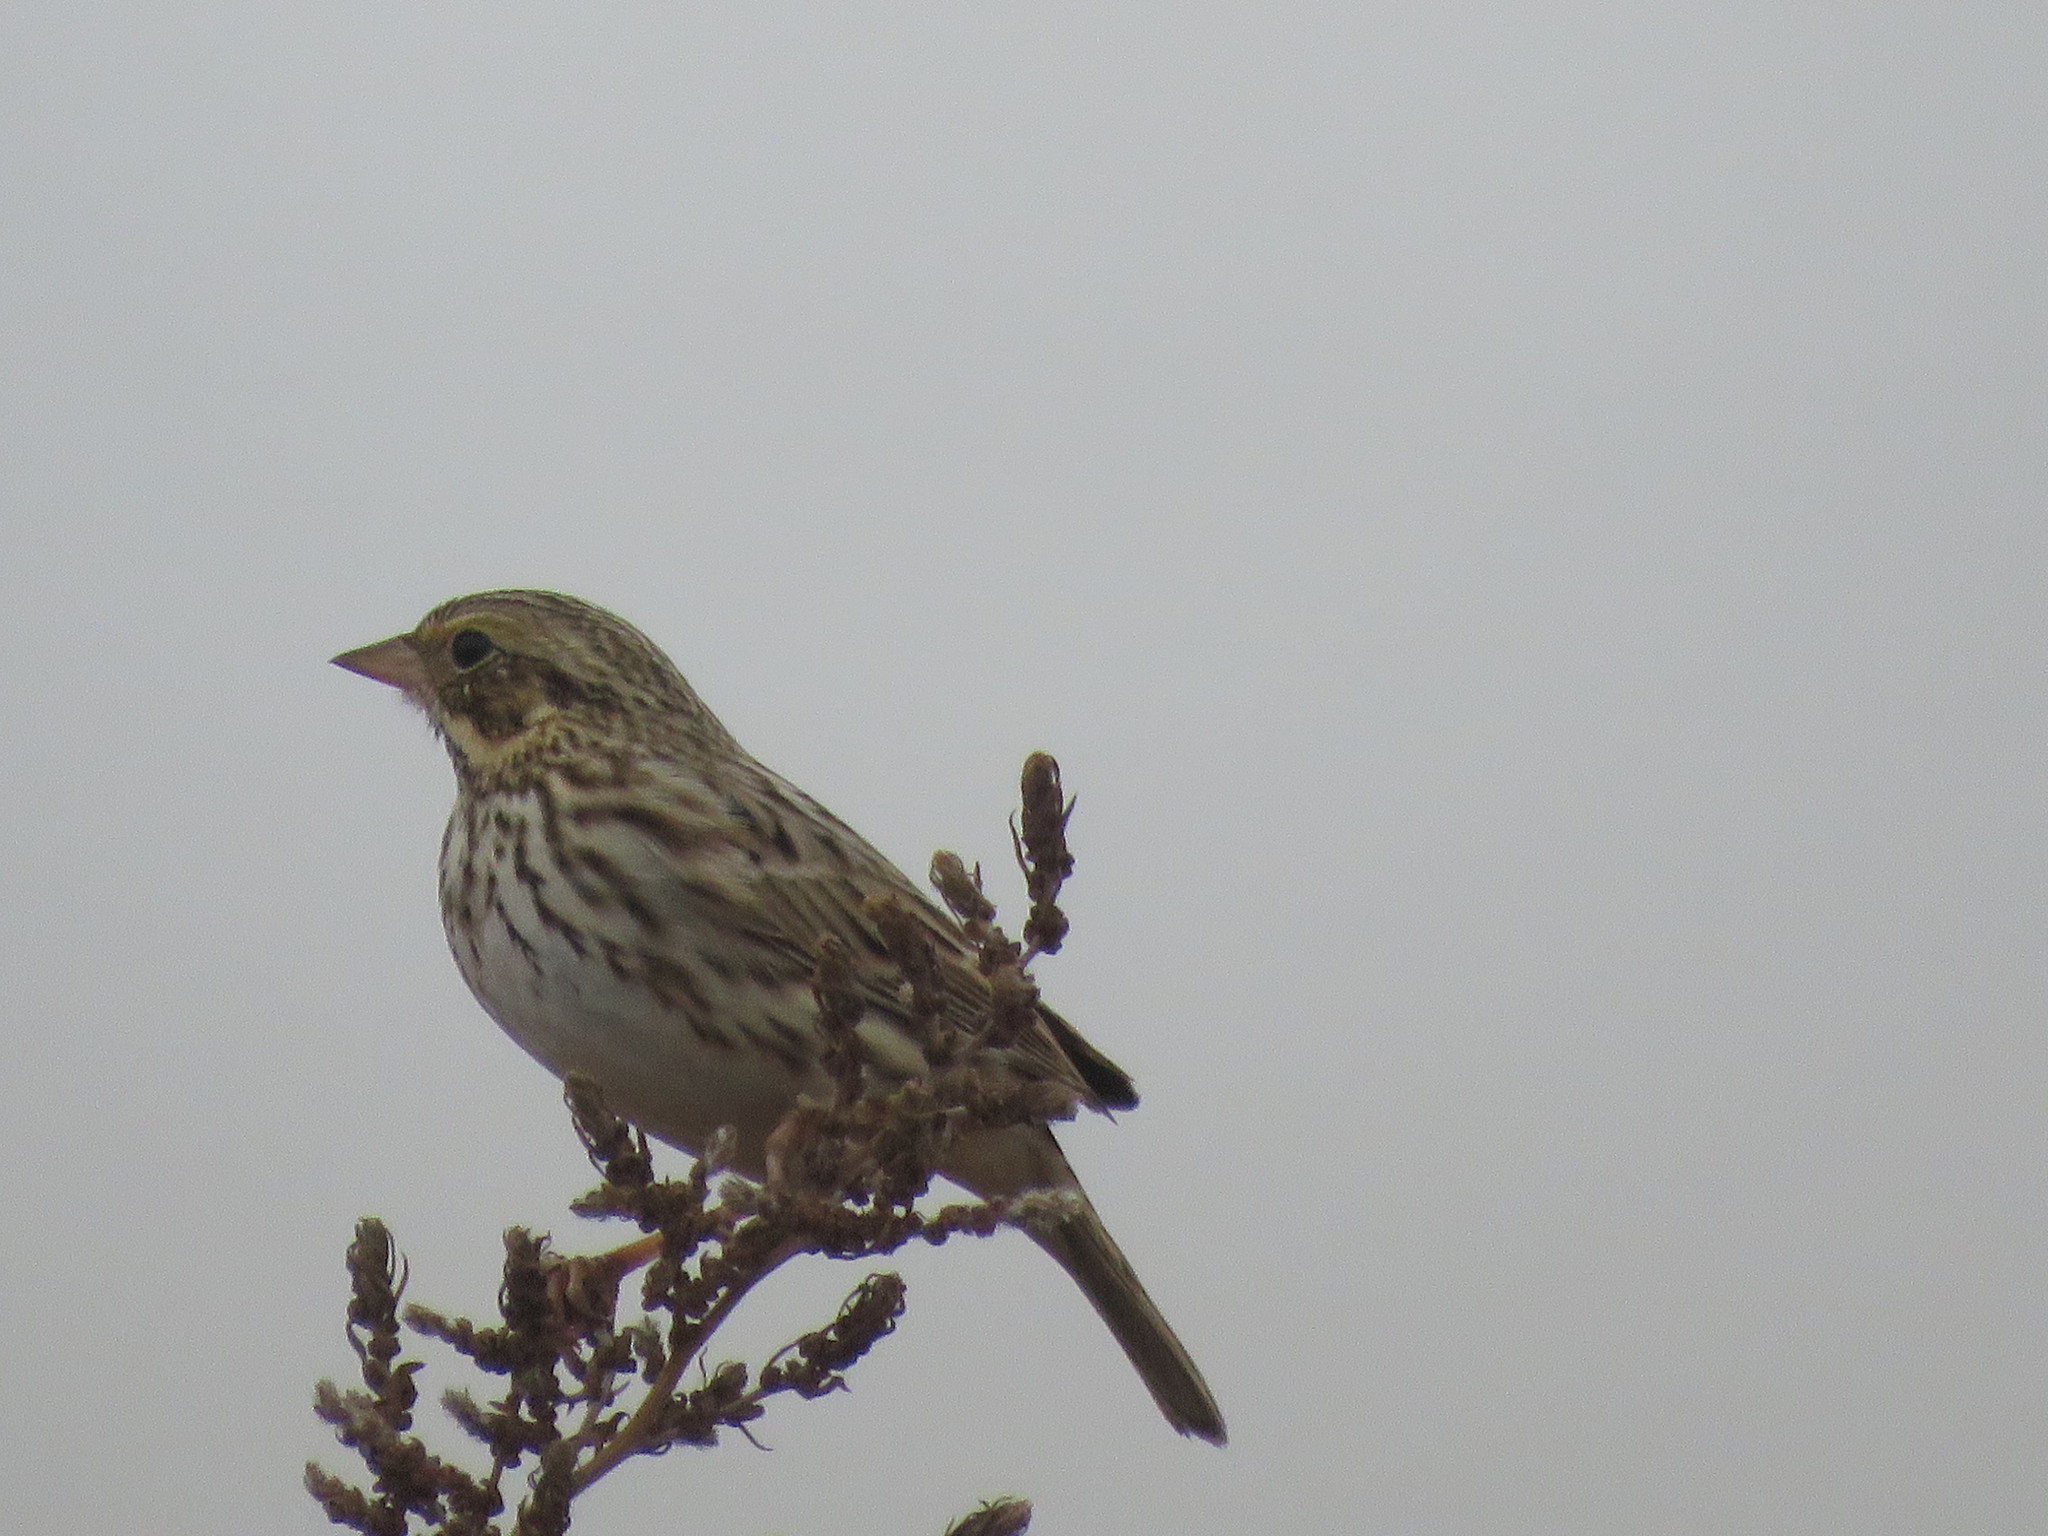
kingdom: Animalia
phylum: Chordata
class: Aves
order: Passeriformes
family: Passerellidae
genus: Passerculus
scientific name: Passerculus sandwichensis
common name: Savannah sparrow
